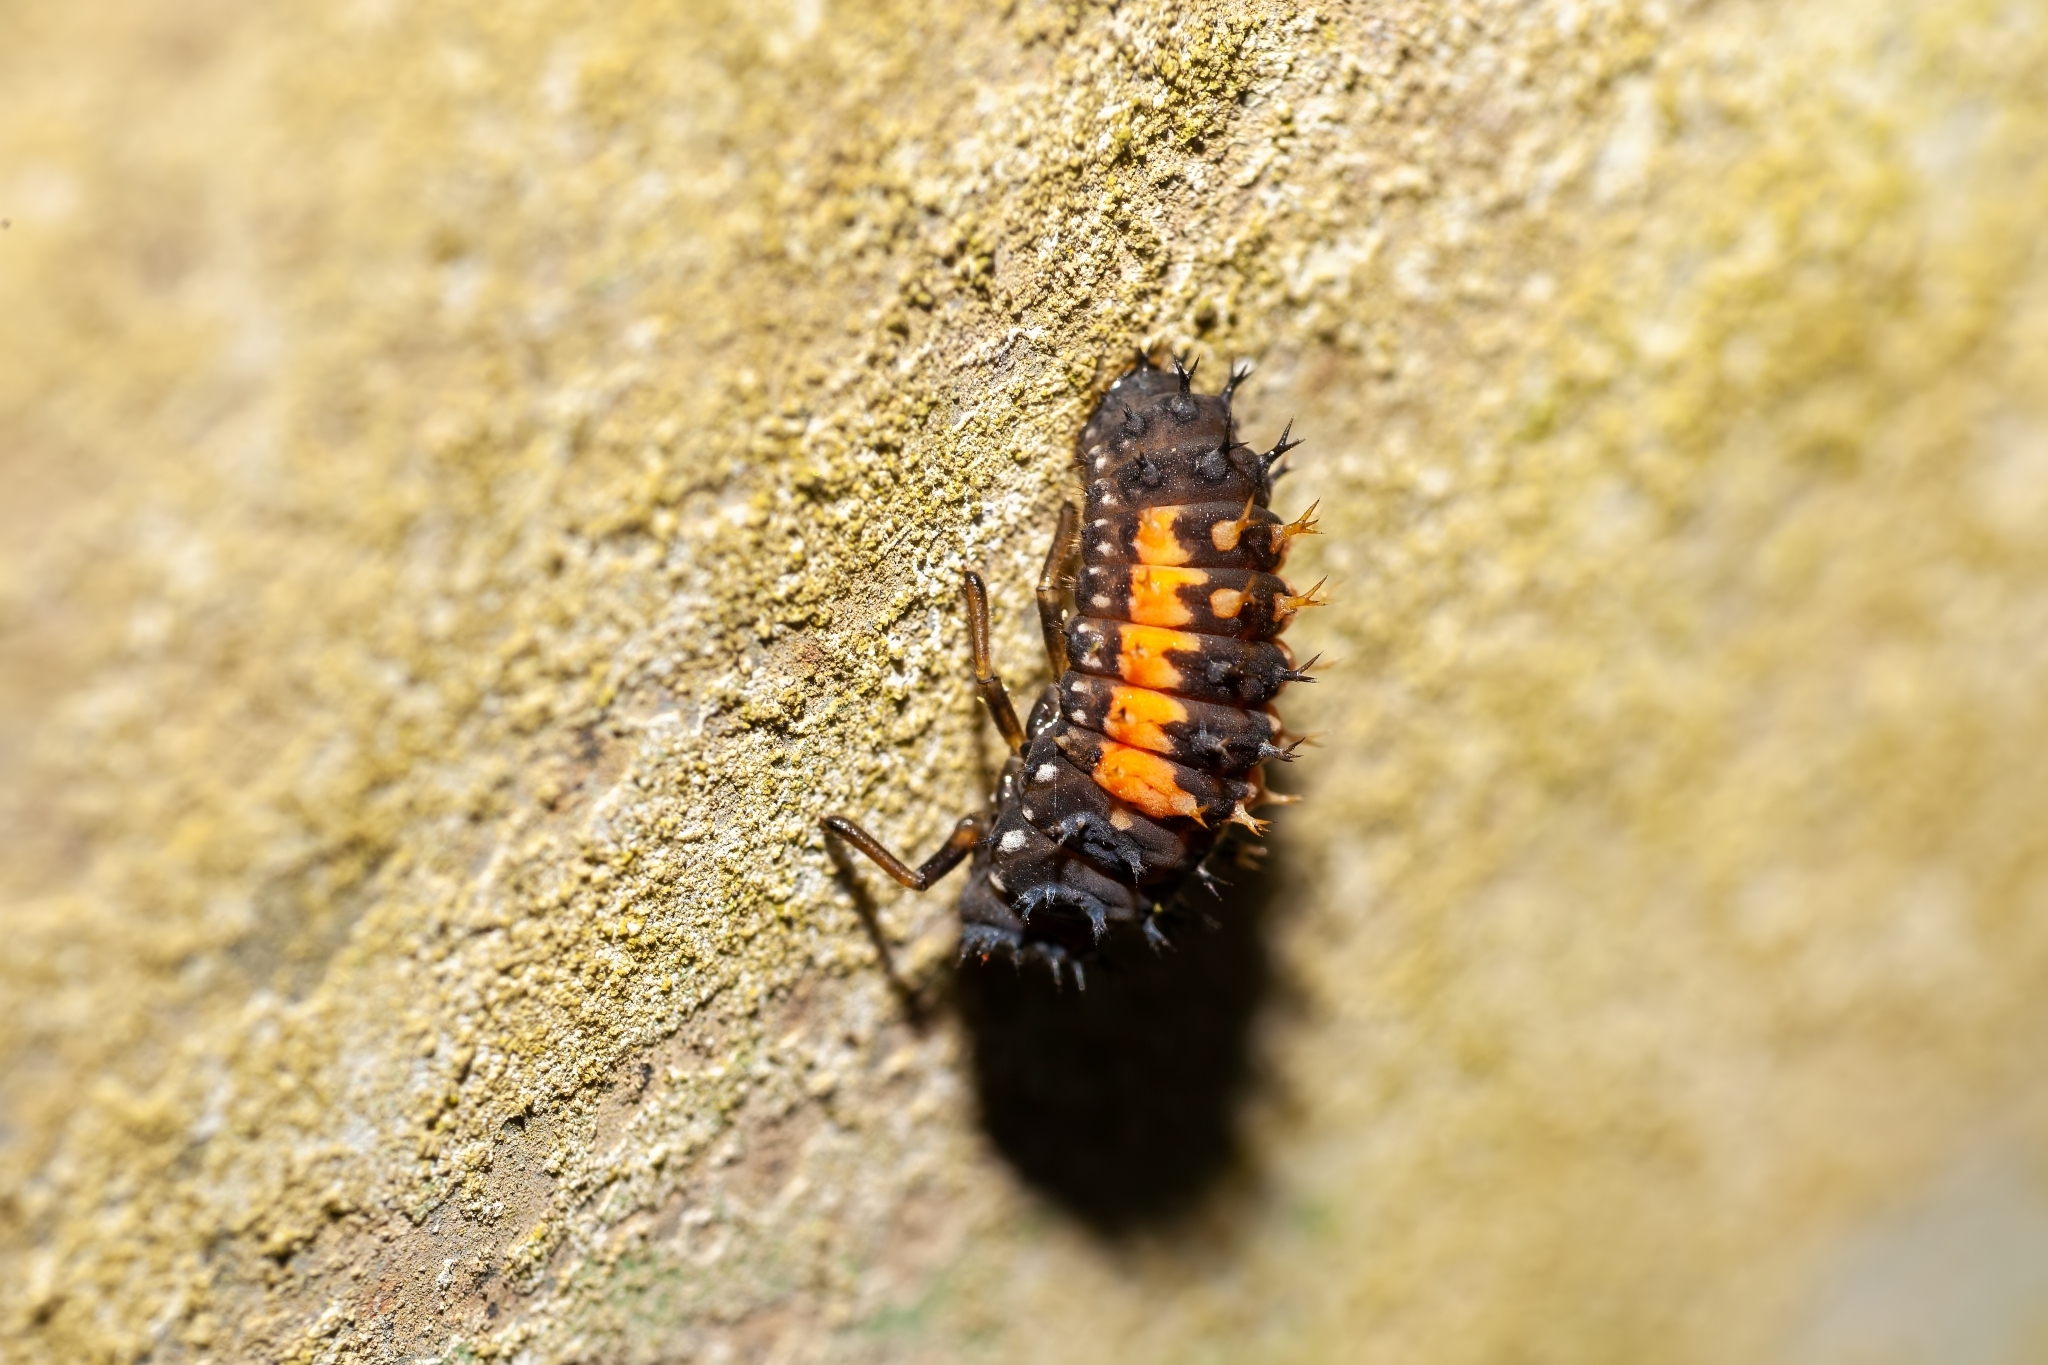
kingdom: Animalia
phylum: Arthropoda
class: Insecta
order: Coleoptera
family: Coccinellidae
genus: Harmonia
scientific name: Harmonia axyridis
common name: Harlequin ladybird
